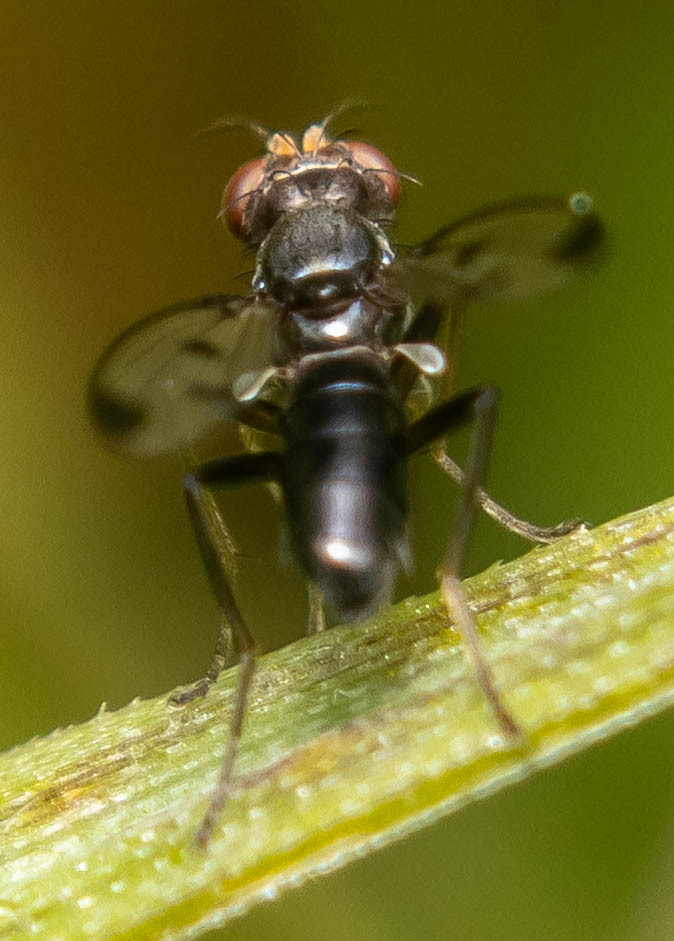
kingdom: Animalia
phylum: Arthropoda
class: Insecta
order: Diptera
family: Opomyzidae
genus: Geomyza
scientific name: Geomyza tripunctata
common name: Cereal fly
